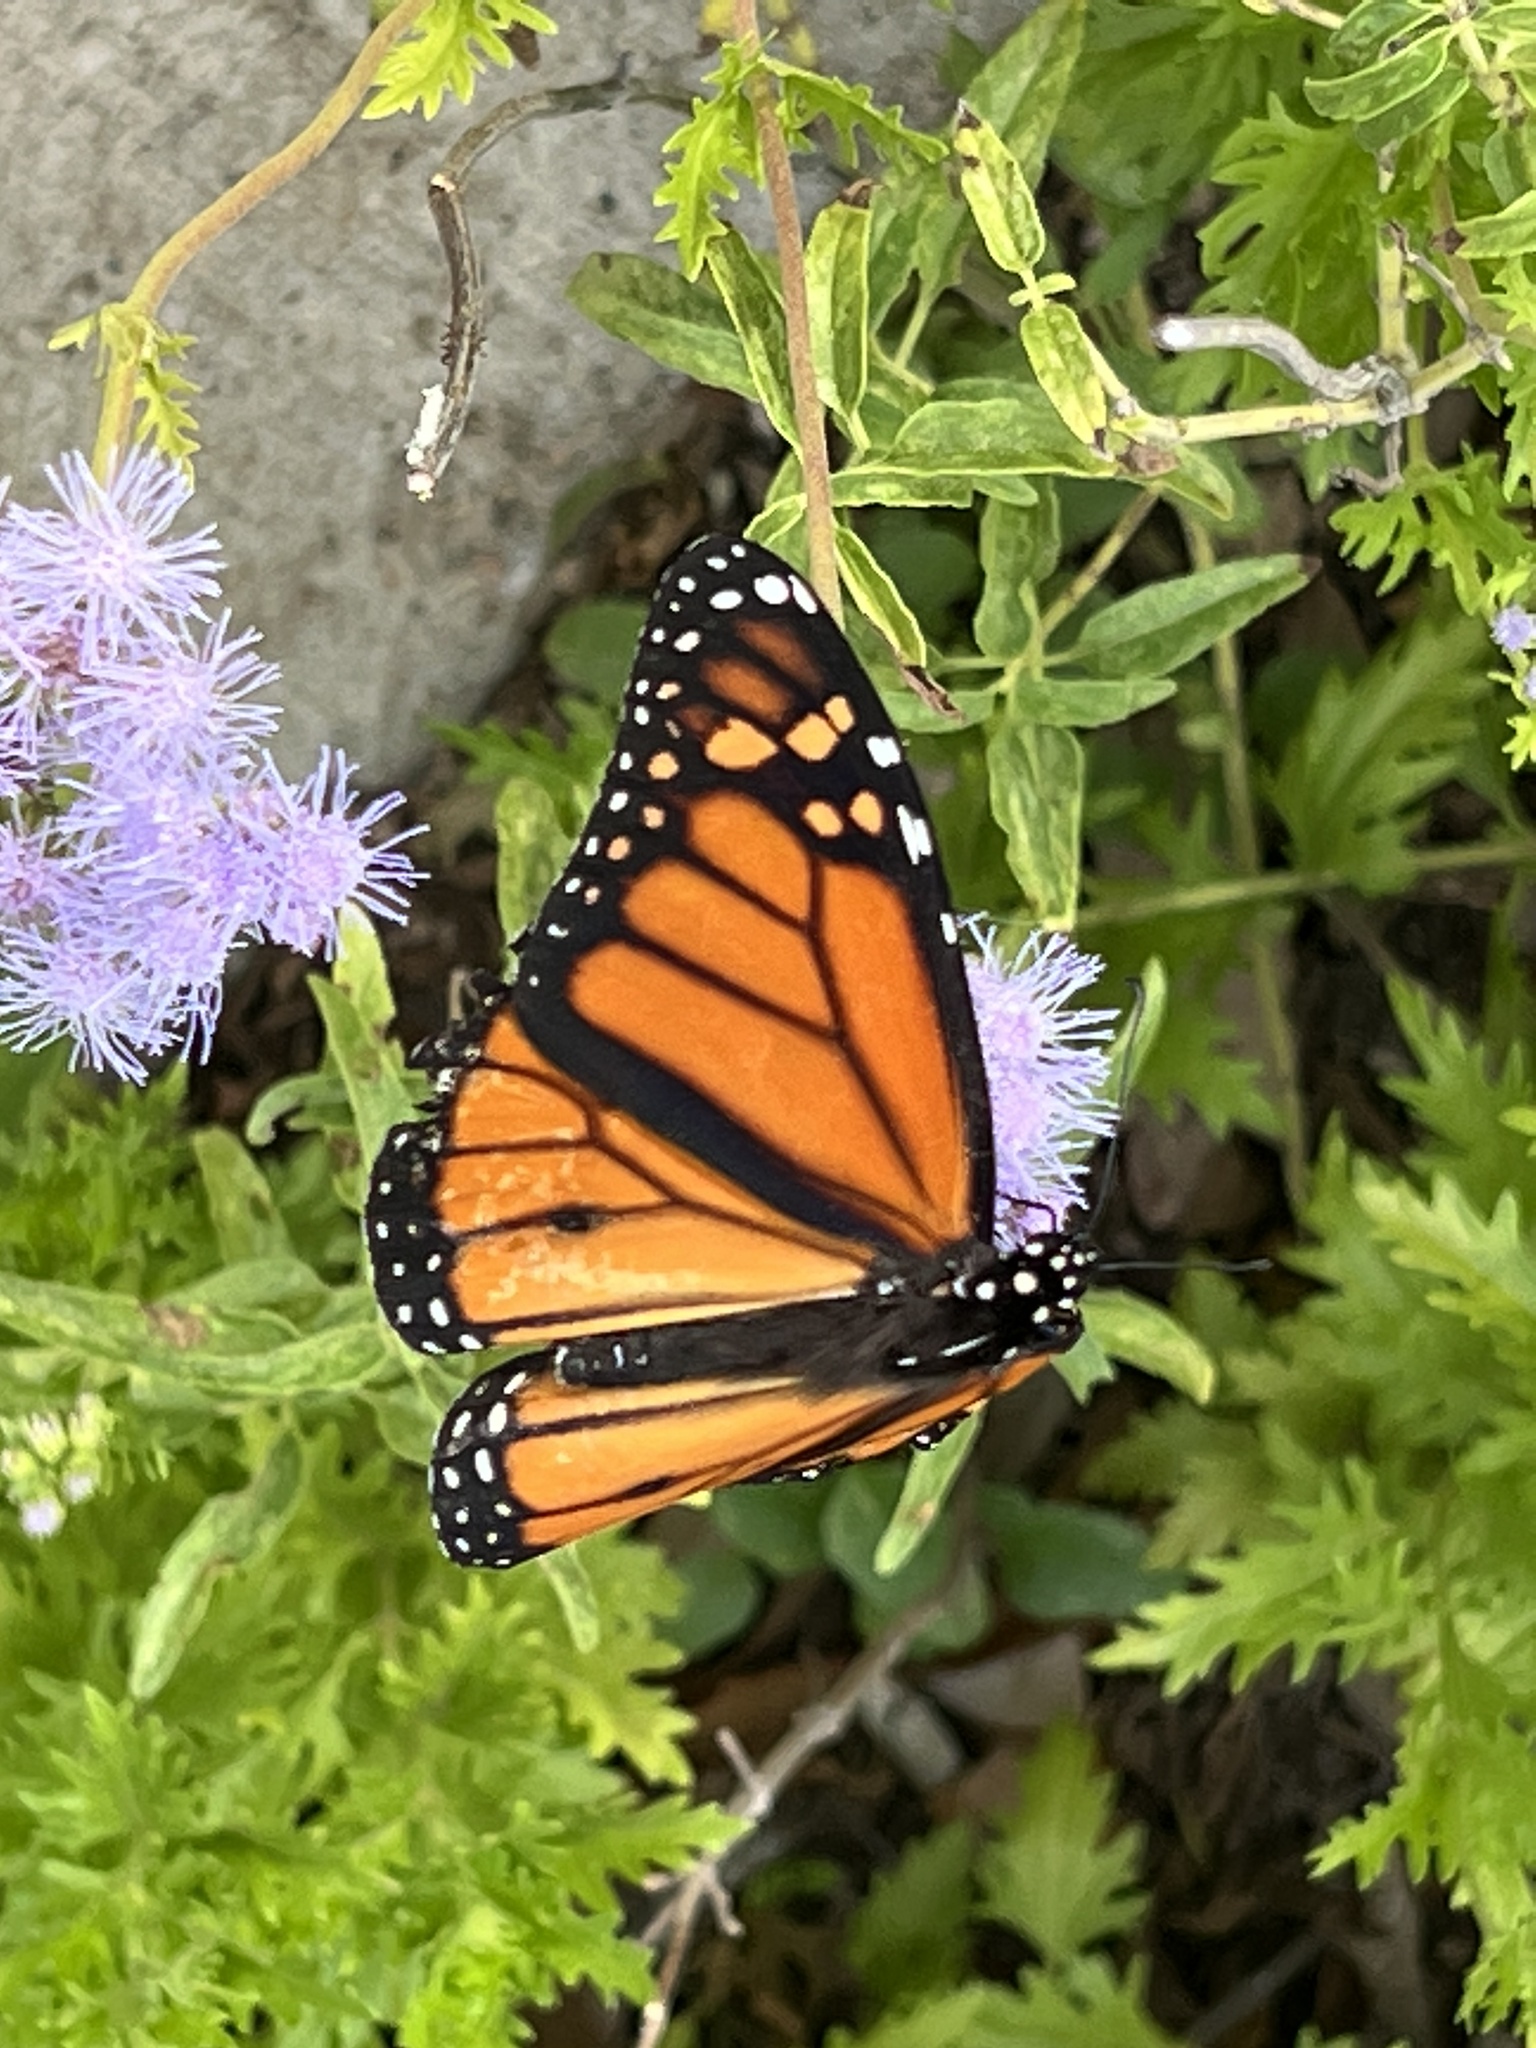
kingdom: Animalia
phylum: Arthropoda
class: Insecta
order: Lepidoptera
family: Nymphalidae
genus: Danaus
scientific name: Danaus plexippus
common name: Monarch
